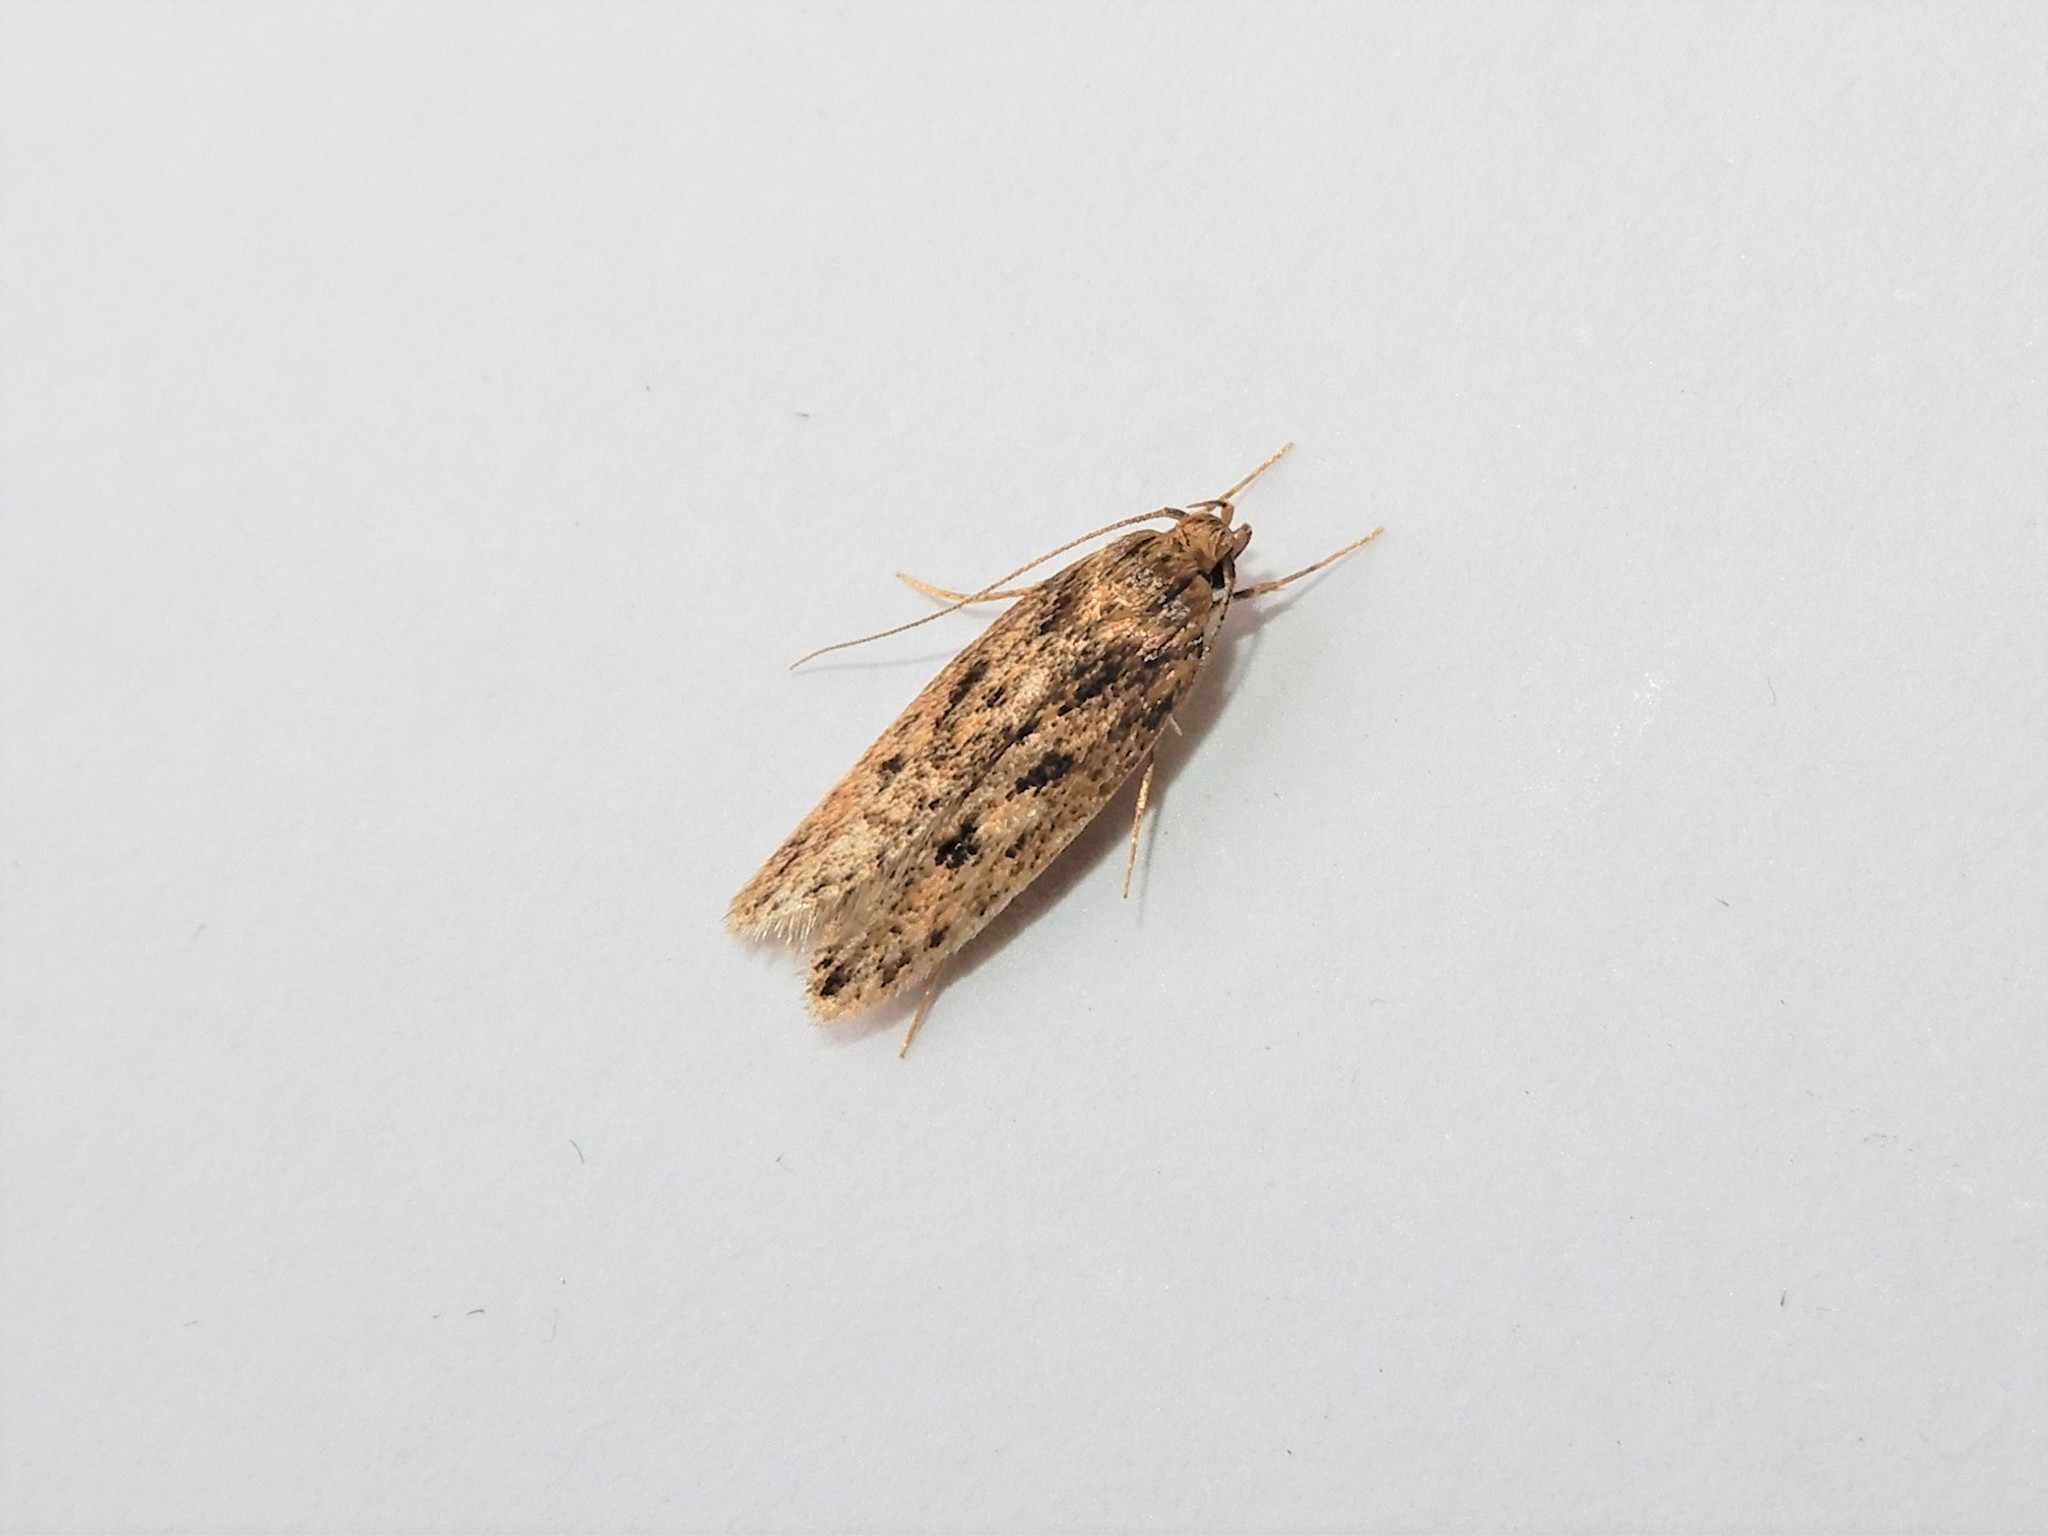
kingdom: Animalia
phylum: Arthropoda
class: Insecta
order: Lepidoptera
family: Oecophoridae
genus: Hofmannophila
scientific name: Hofmannophila pseudospretella
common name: Brown house moth
